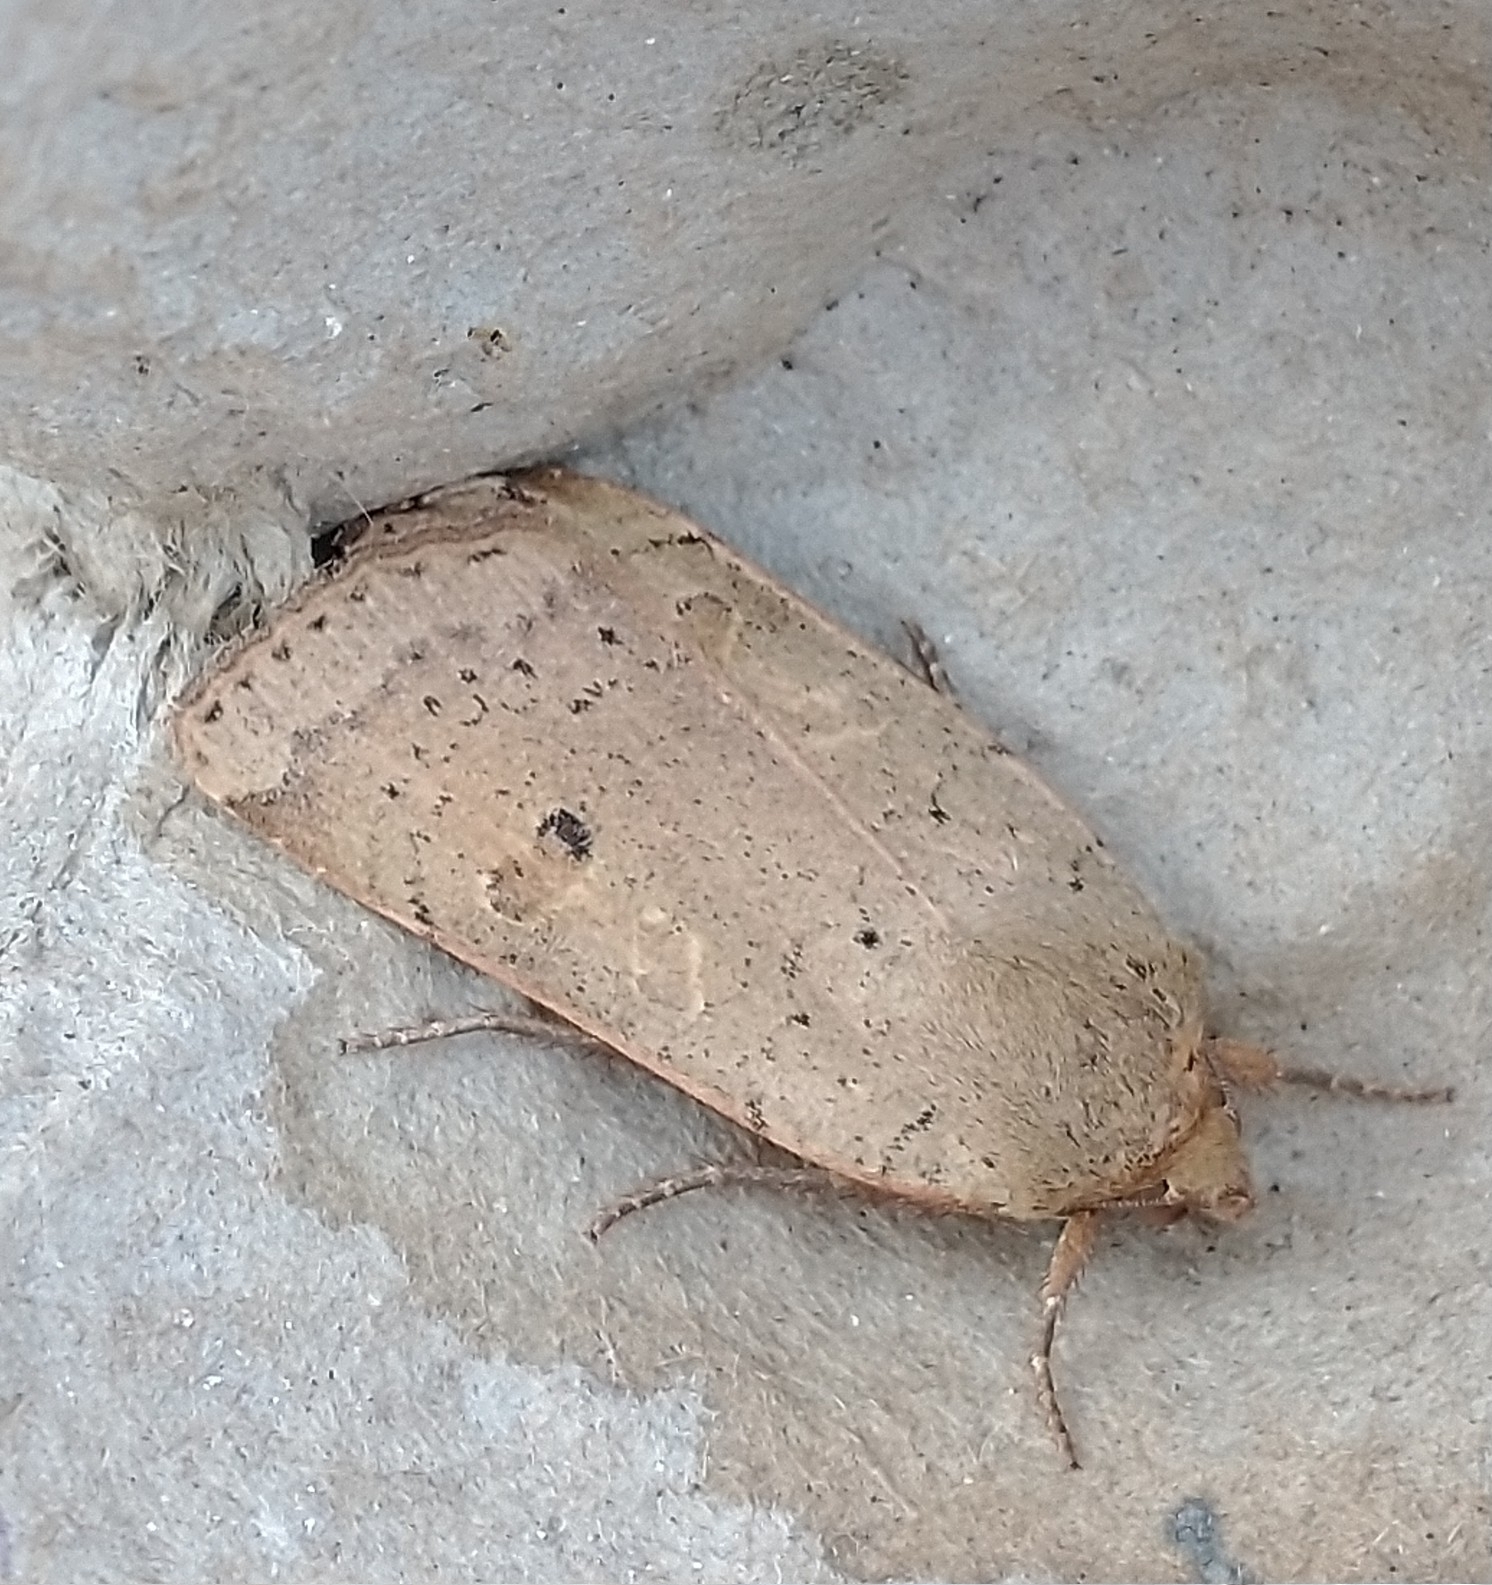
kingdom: Animalia
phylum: Arthropoda
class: Insecta
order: Lepidoptera
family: Noctuidae
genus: Noctua
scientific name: Noctua comes
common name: Lesser yellow underwing
